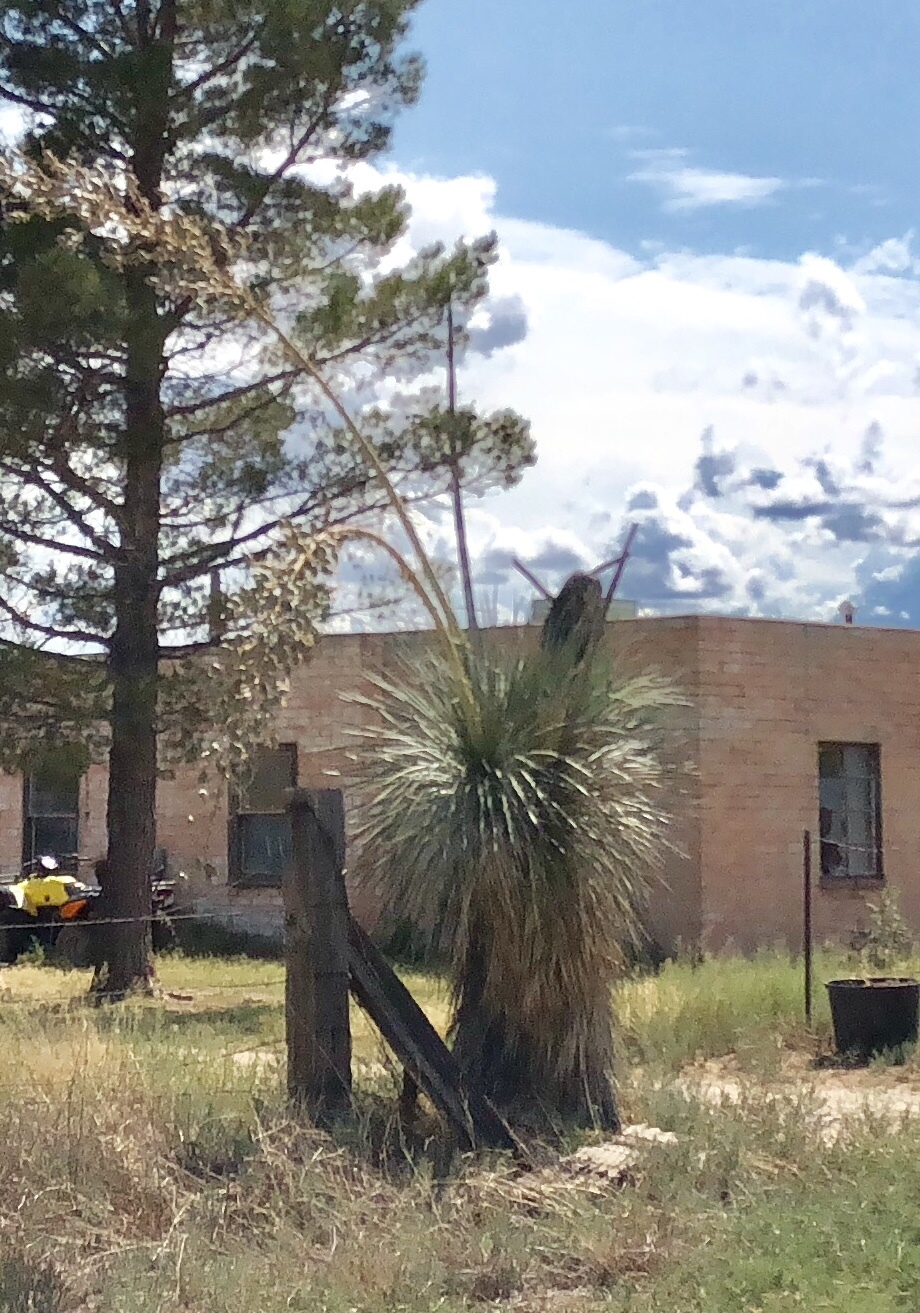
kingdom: Plantae
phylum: Tracheophyta
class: Liliopsida
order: Asparagales
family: Asparagaceae
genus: Yucca
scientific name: Yucca elata
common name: Palmella
